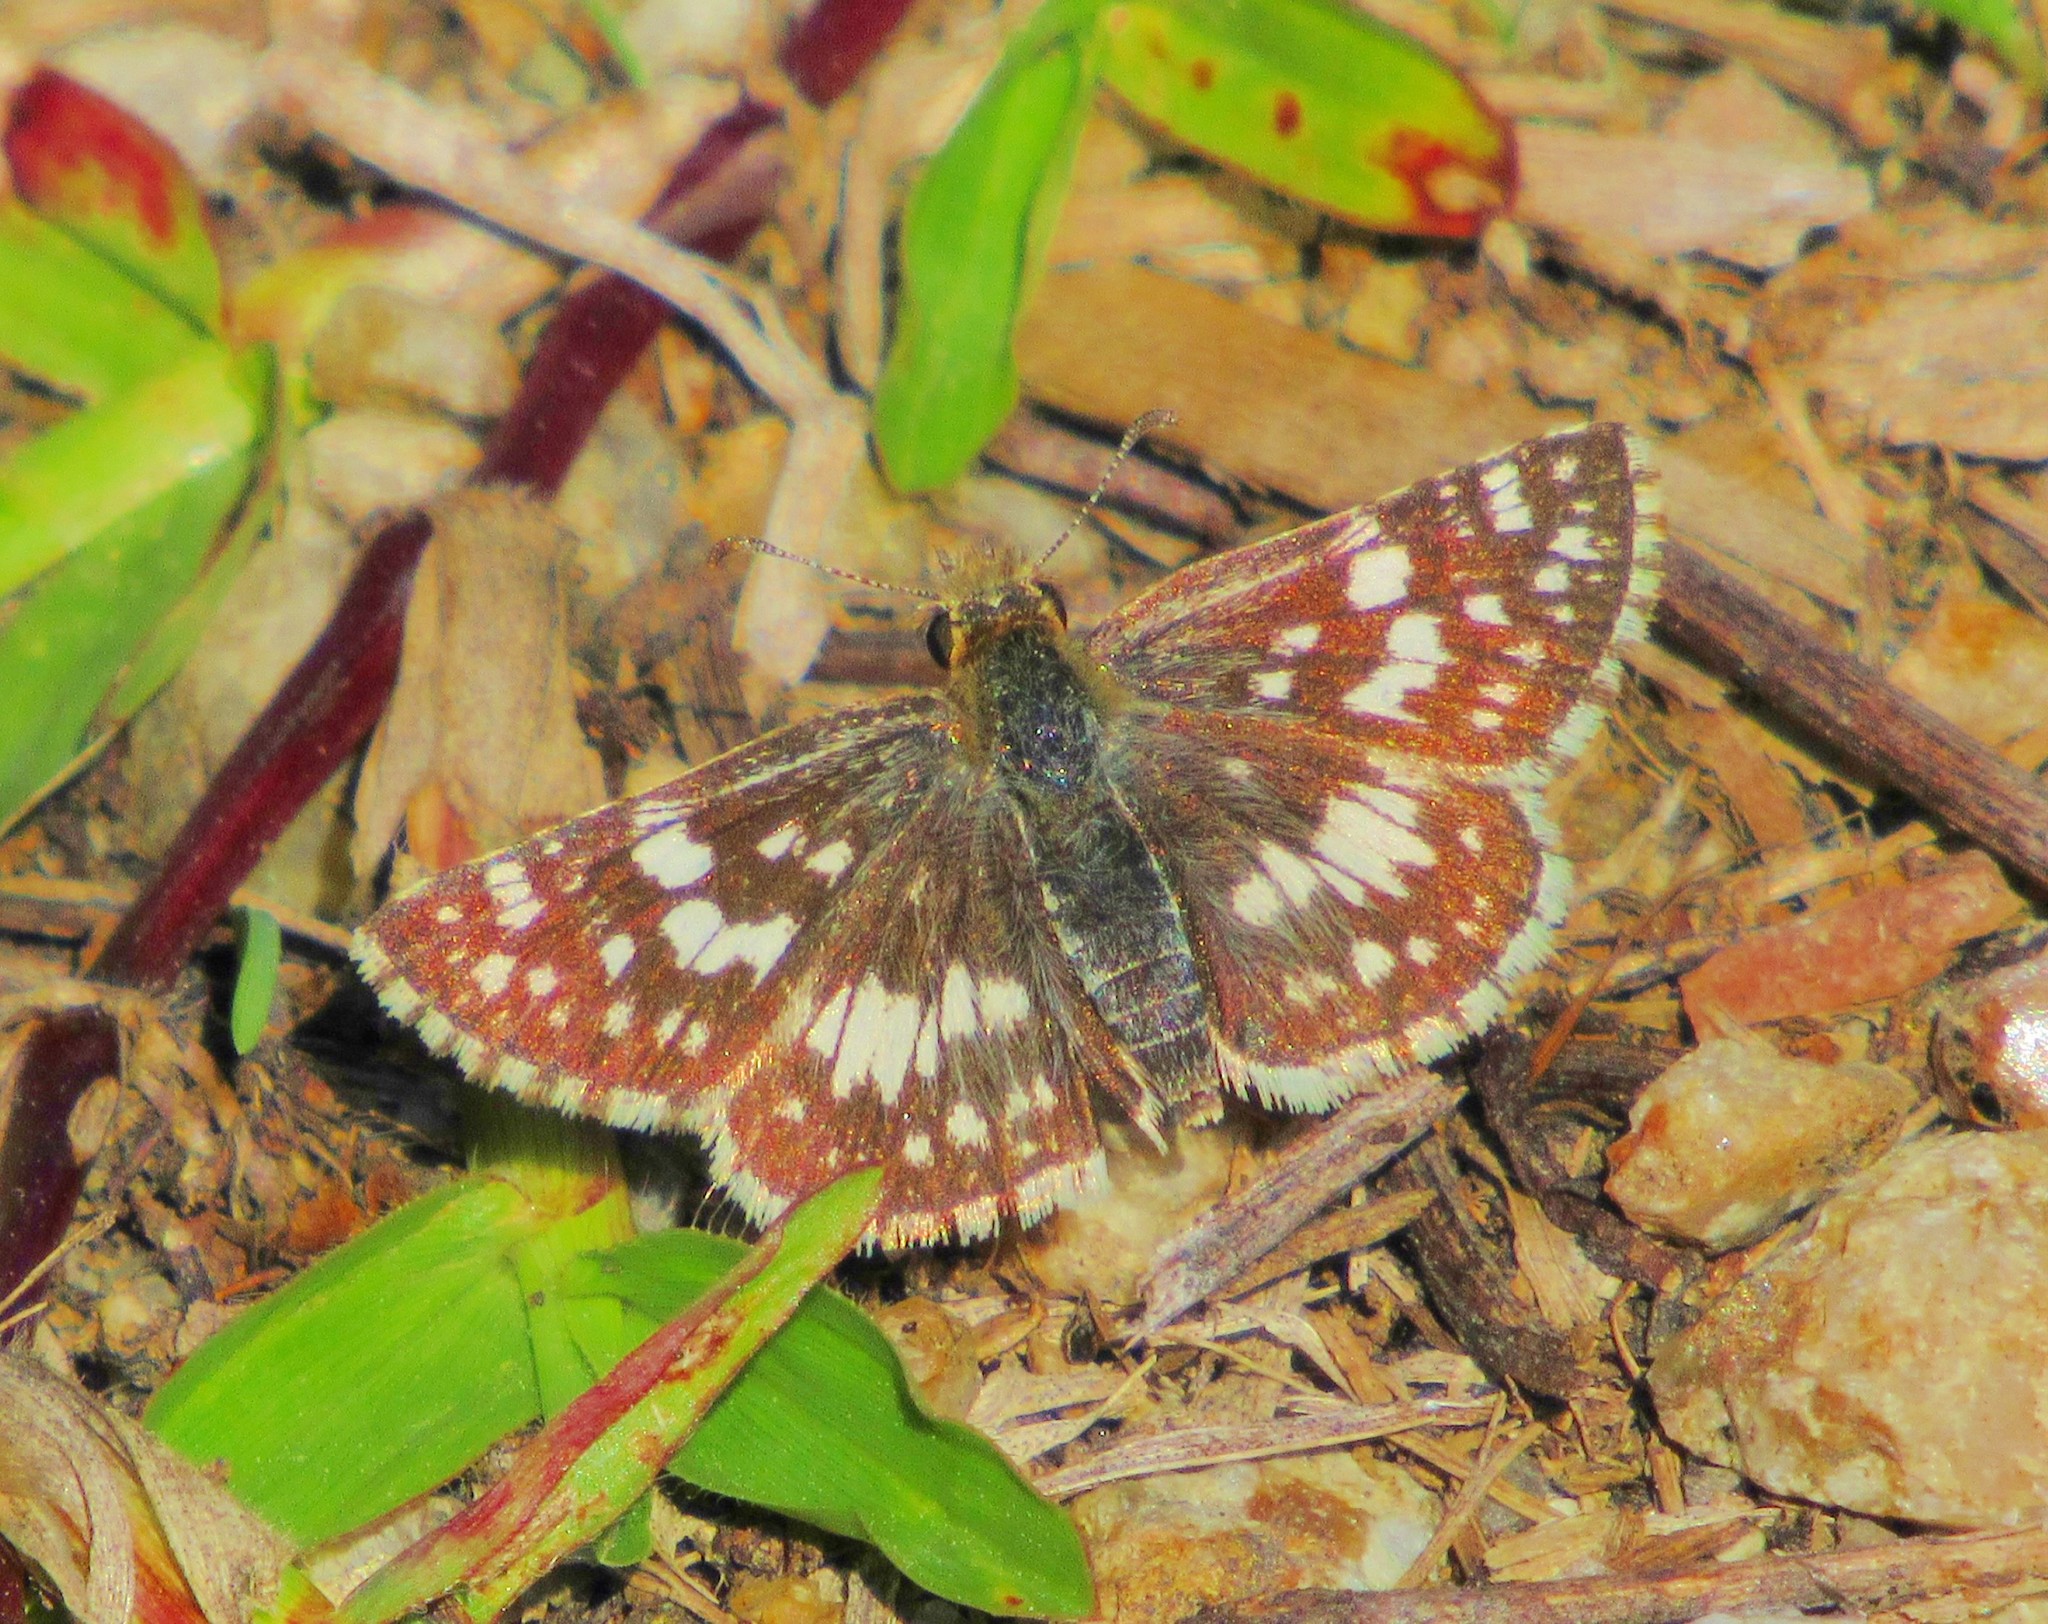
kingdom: Animalia
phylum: Arthropoda
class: Insecta
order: Lepidoptera
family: Hesperiidae
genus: Burnsius
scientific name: Burnsius orcynoides
